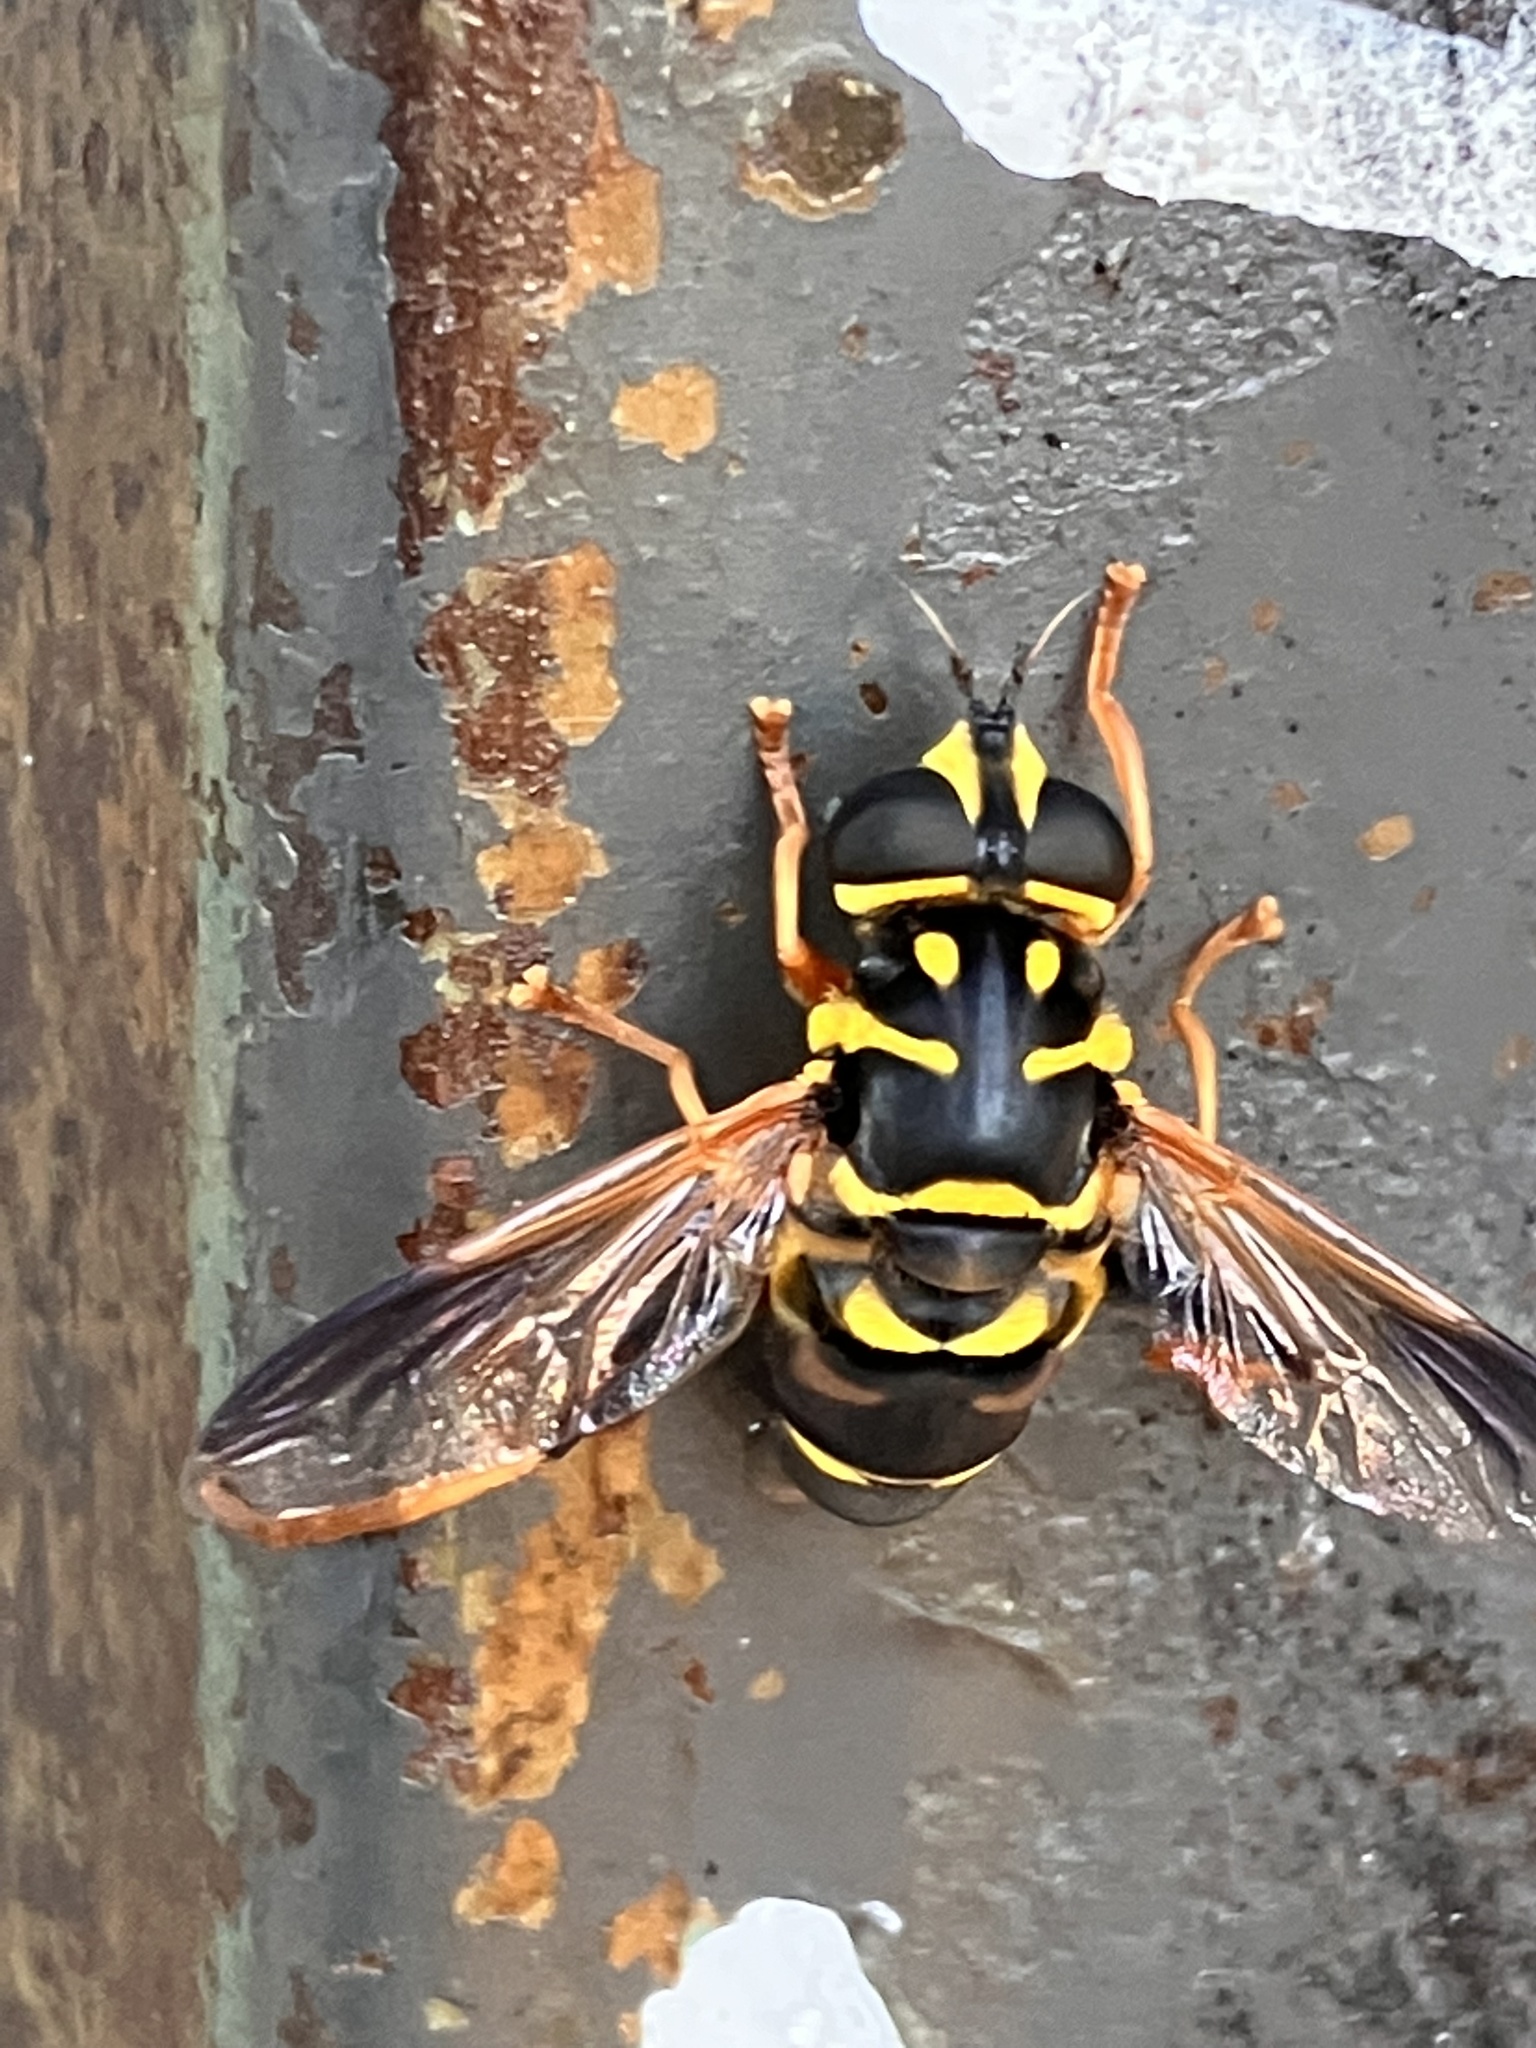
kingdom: Animalia
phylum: Arthropoda
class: Insecta
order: Diptera
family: Syrphidae
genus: Meromacrus
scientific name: Meromacrus acutus
